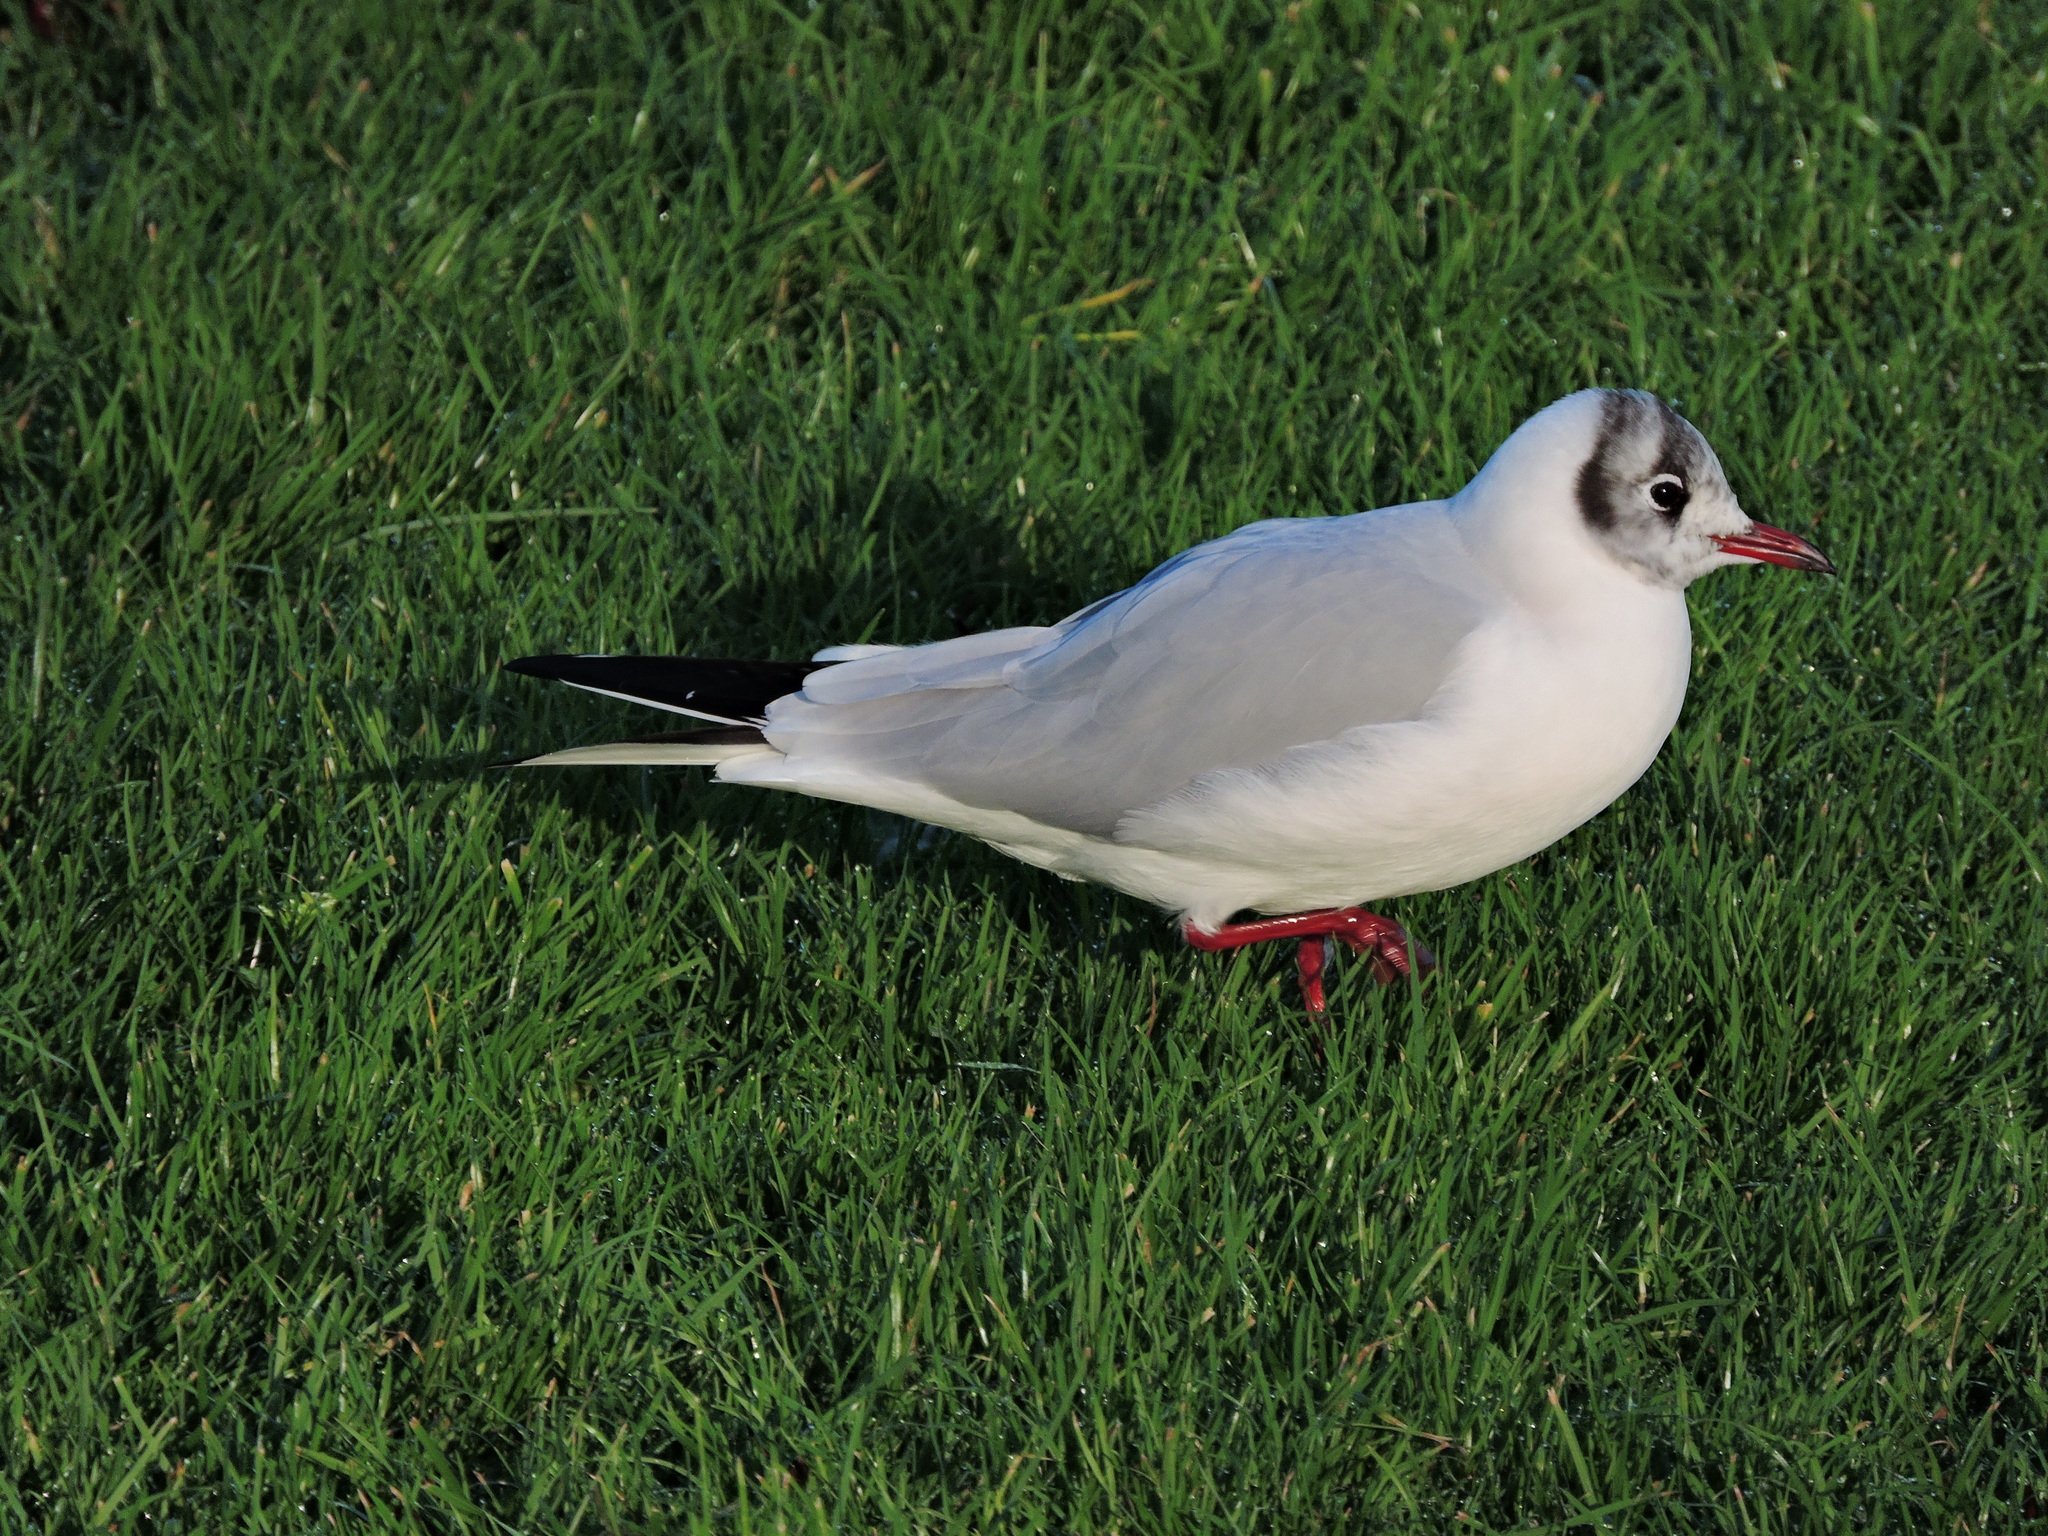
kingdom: Animalia
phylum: Chordata
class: Aves
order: Charadriiformes
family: Laridae
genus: Chroicocephalus
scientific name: Chroicocephalus ridibundus
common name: Black-headed gull
